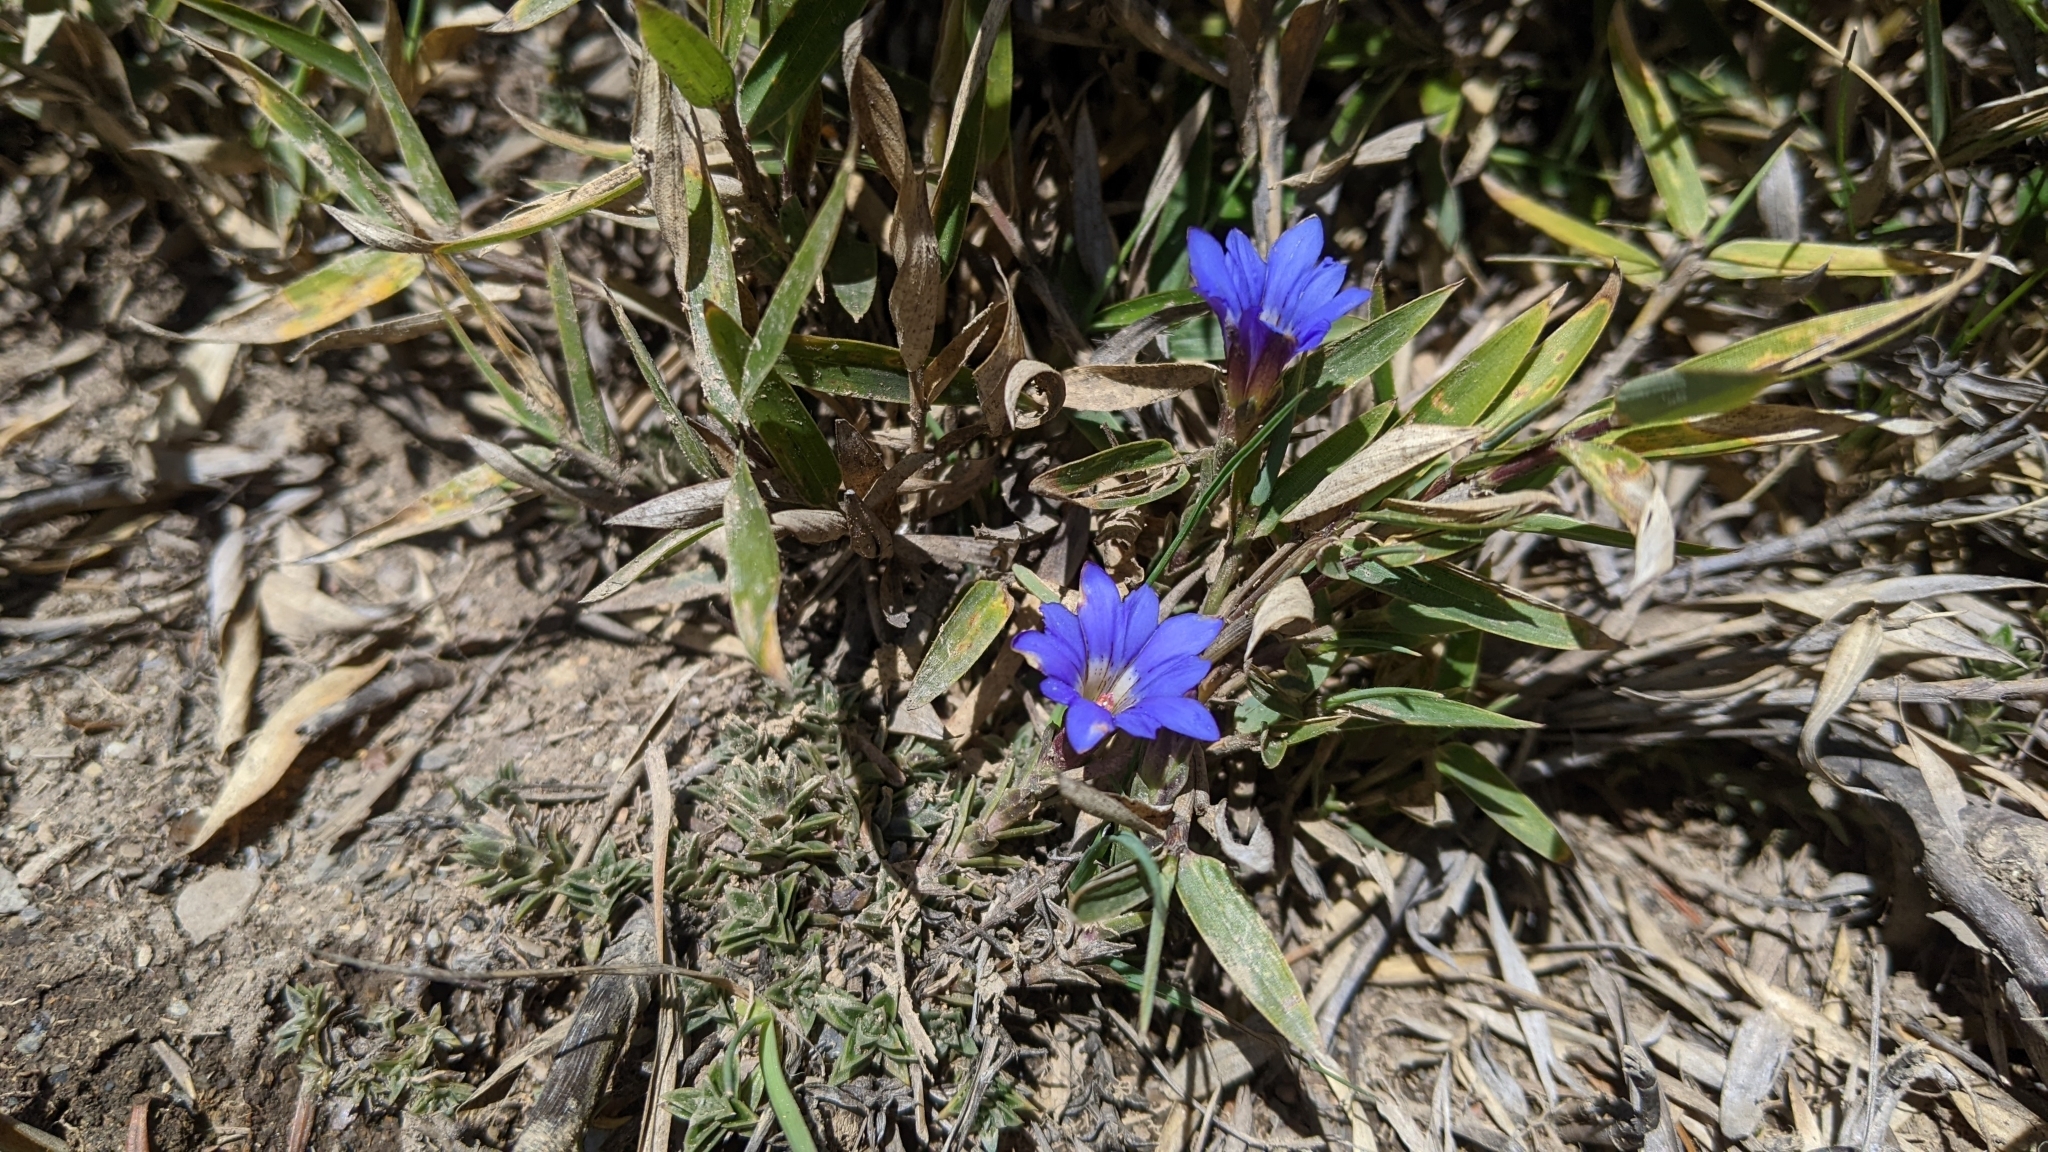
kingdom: Plantae
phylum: Tracheophyta
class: Magnoliopsida
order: Gentianales
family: Gentianaceae
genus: Gentiana
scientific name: Gentiana arisanensis
